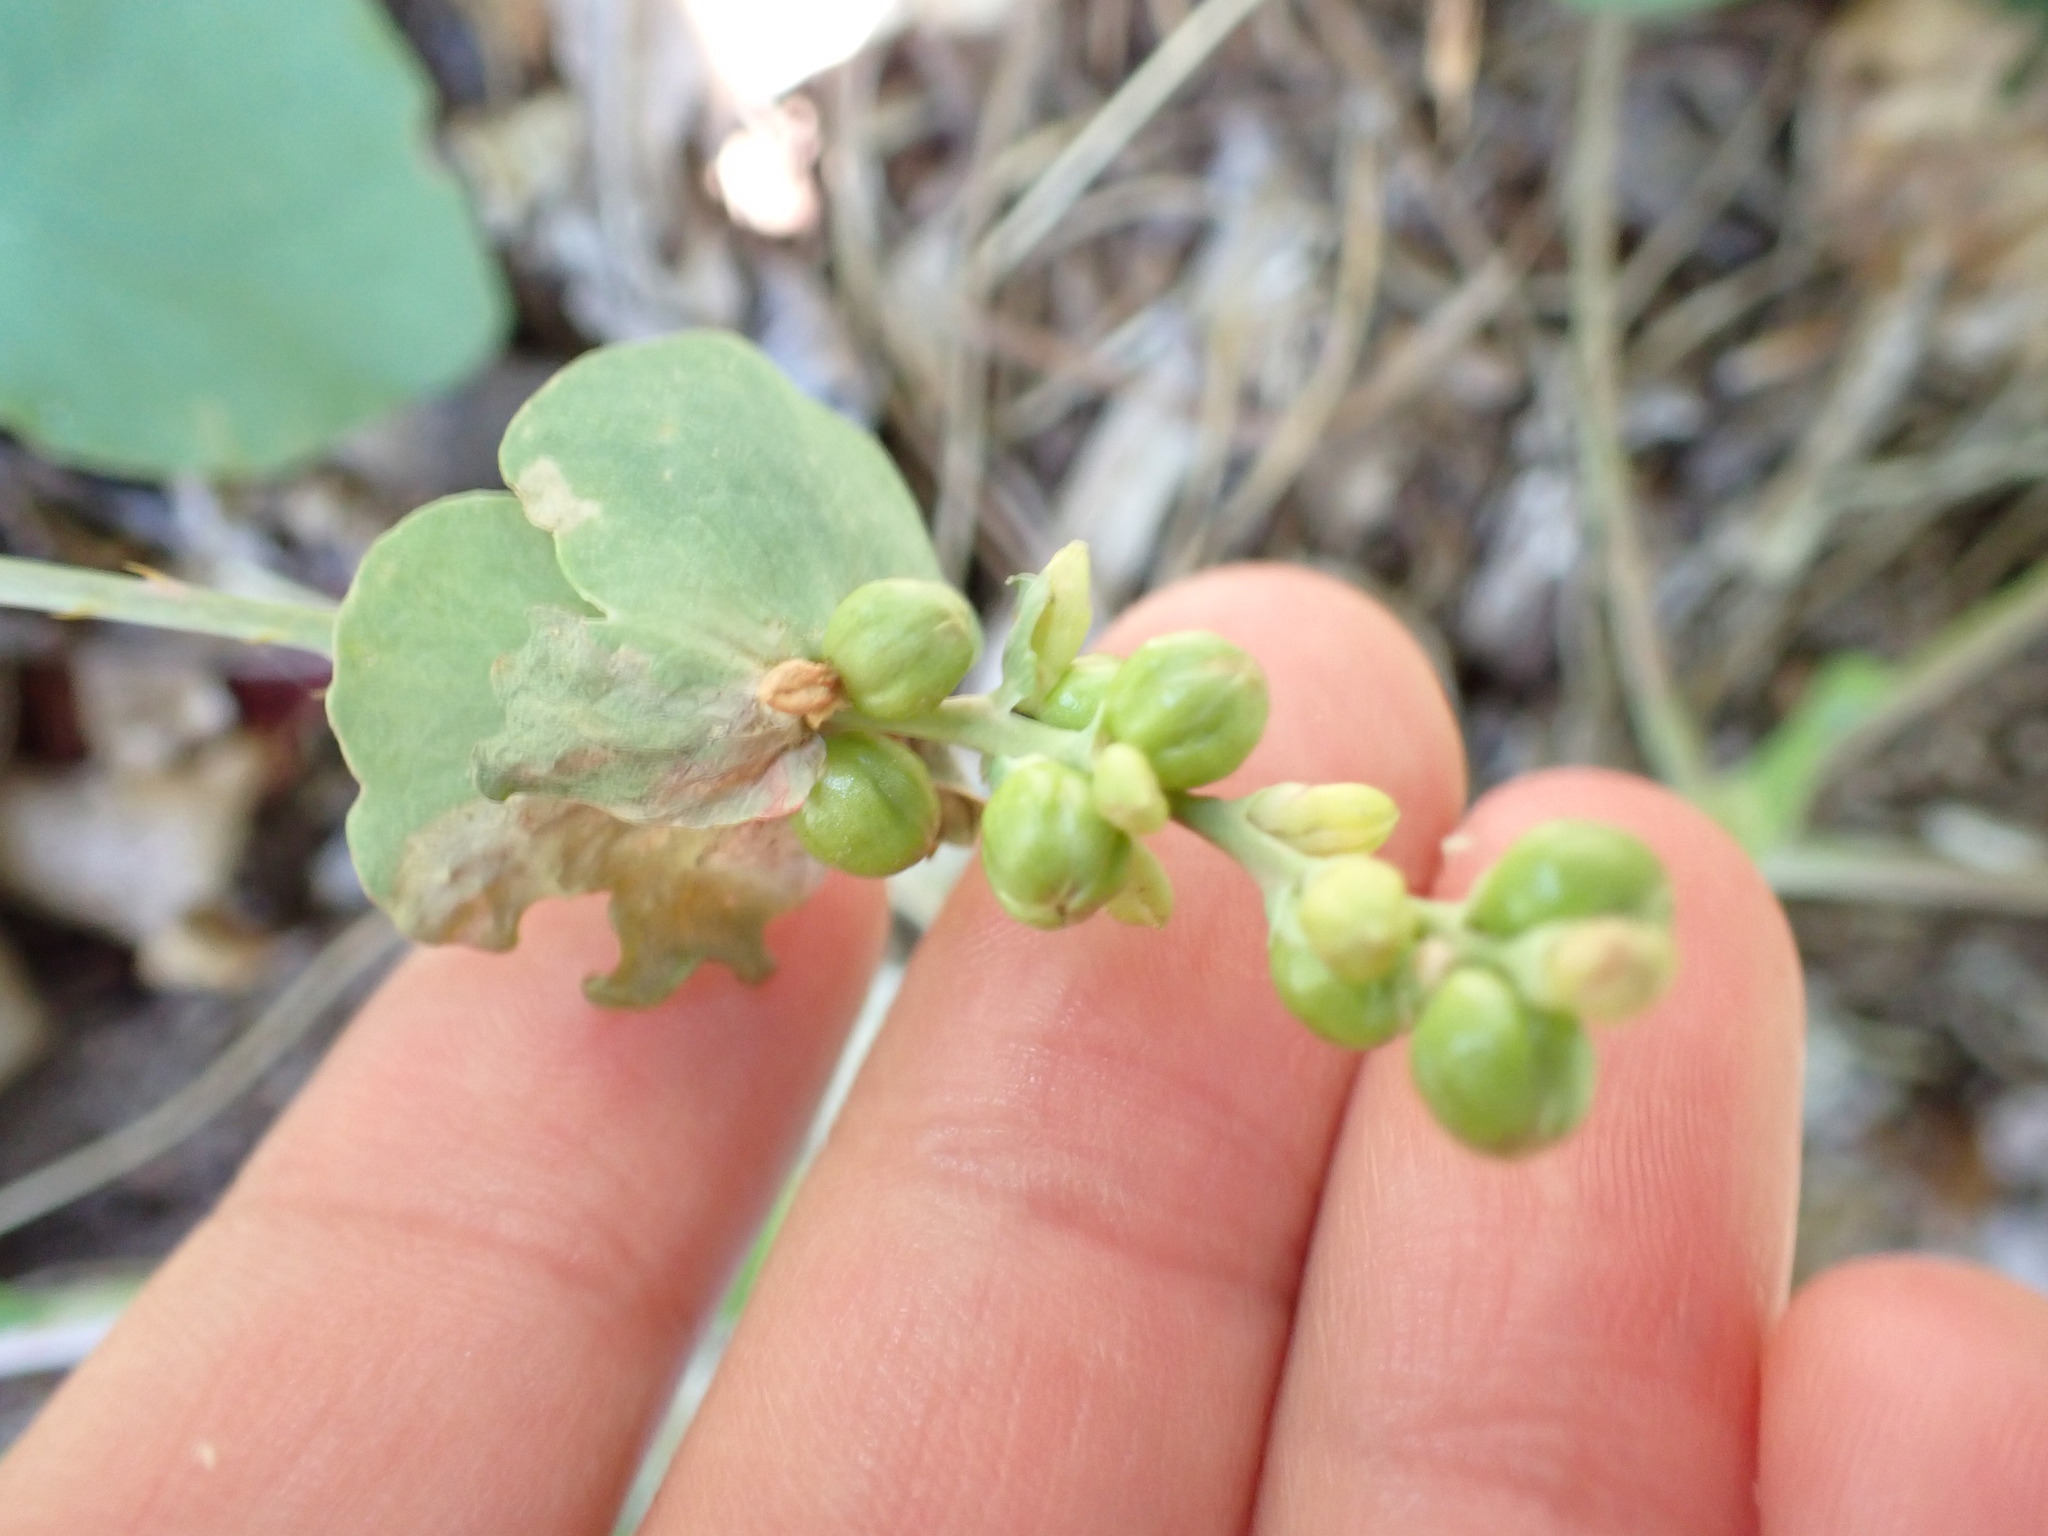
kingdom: Plantae
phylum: Tracheophyta
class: Magnoliopsida
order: Caryophyllales
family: Polygonaceae
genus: Persicaria
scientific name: Persicaria perfoliata
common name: Asiatic tearthumb
